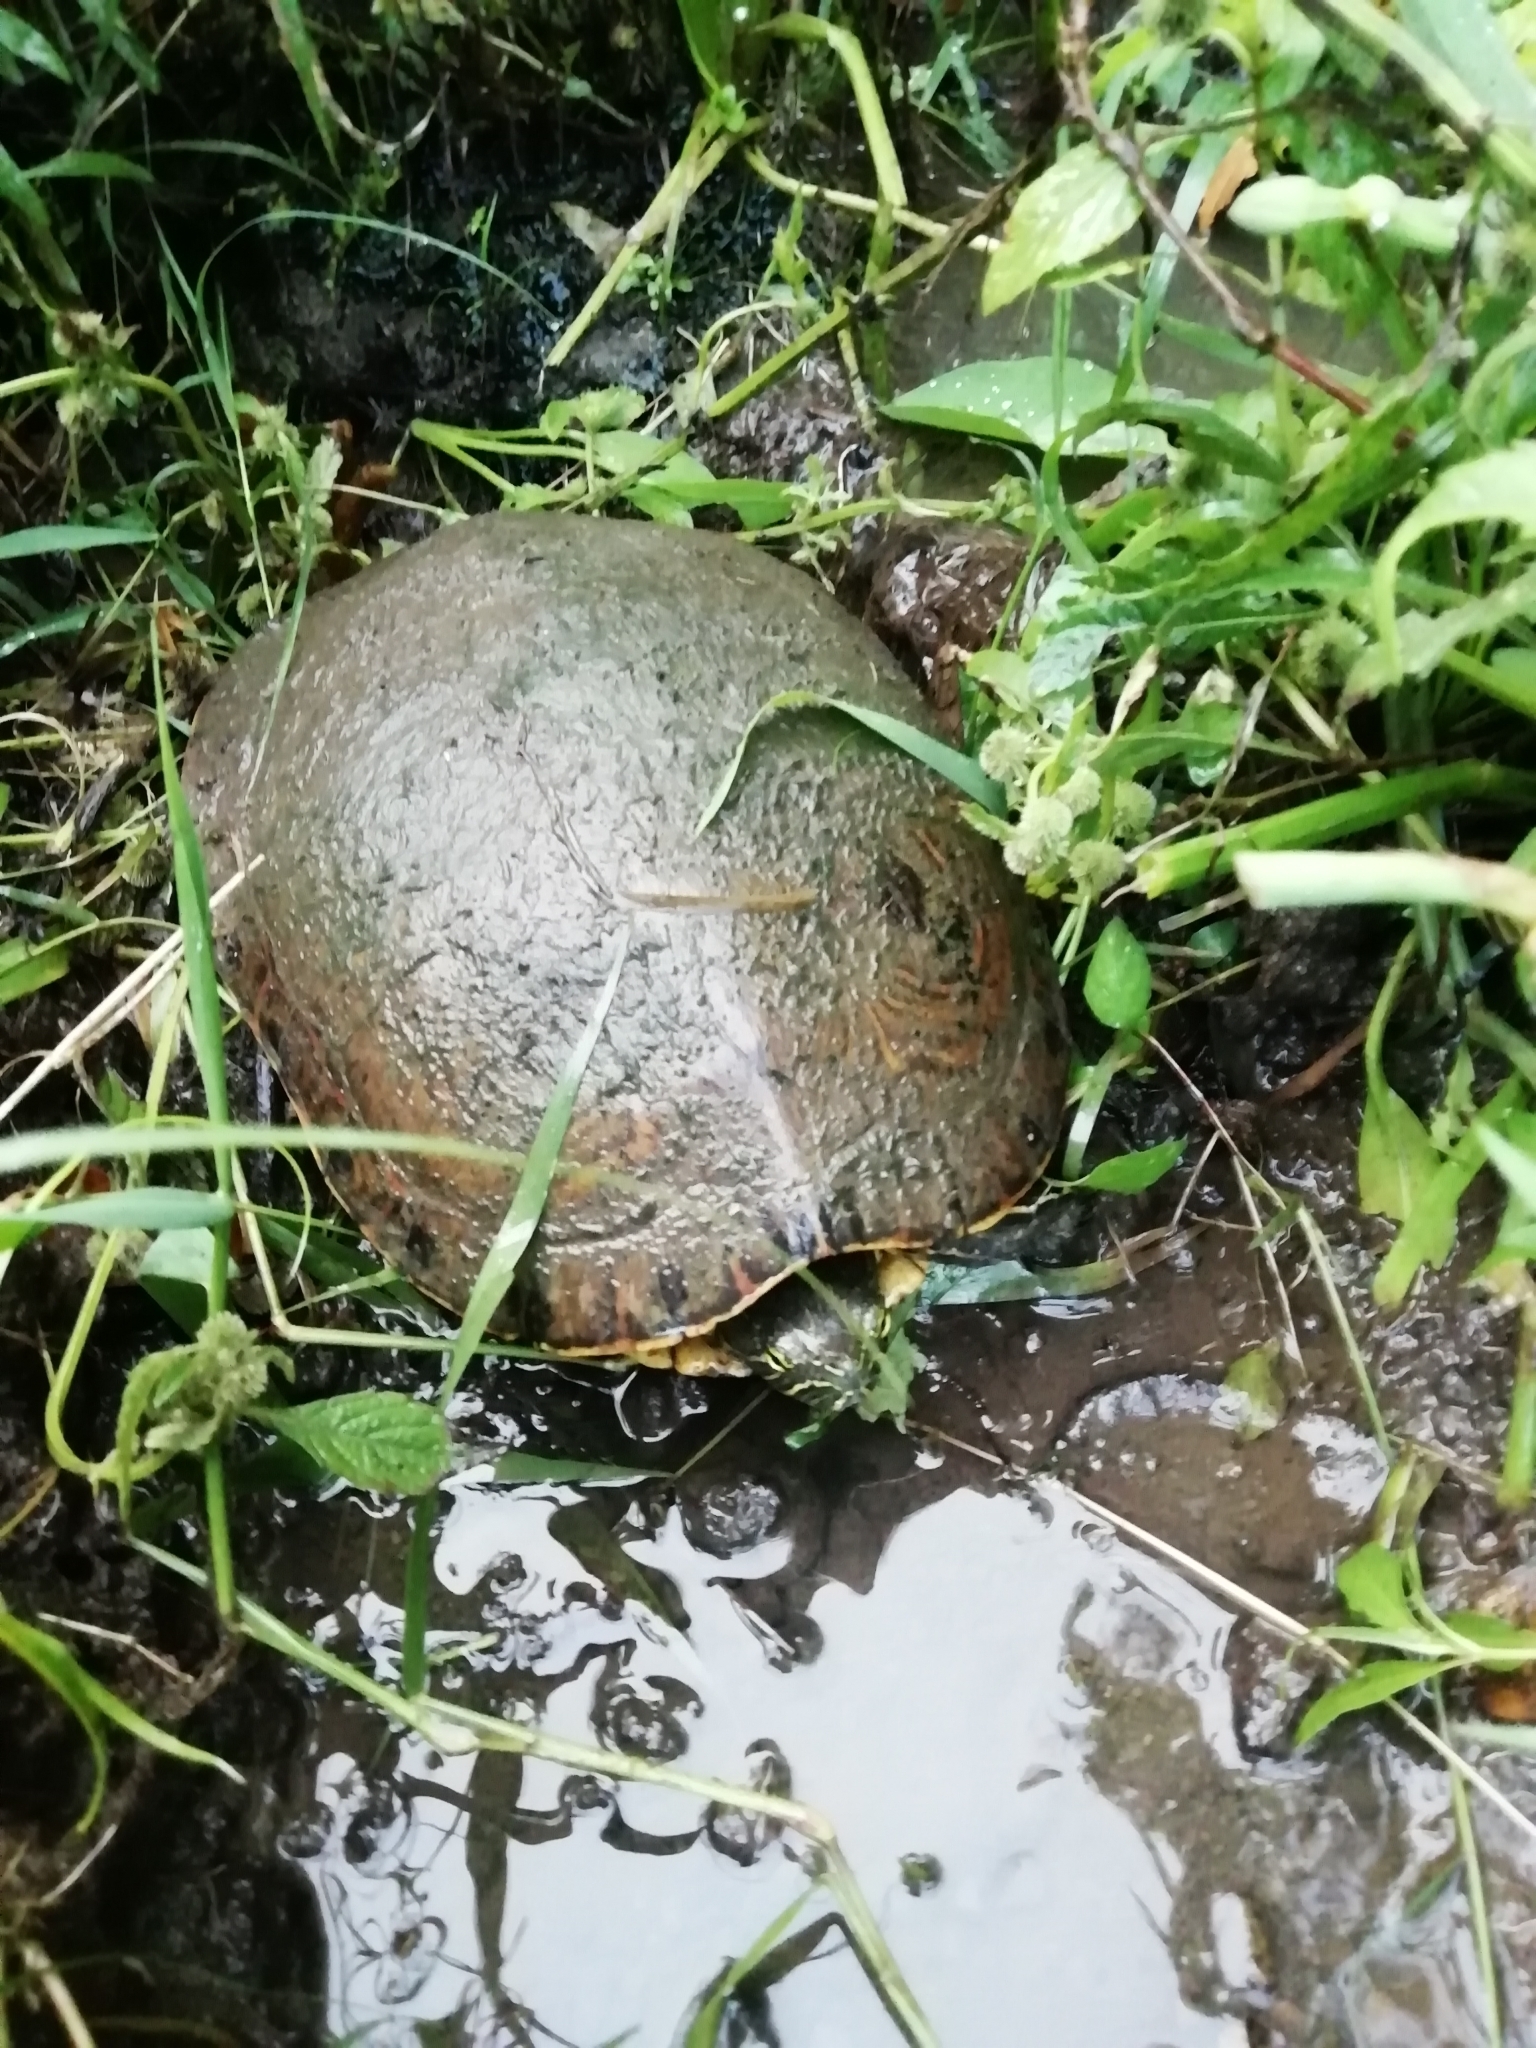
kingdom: Animalia
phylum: Chordata
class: Testudines
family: Emydidae
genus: Trachemys
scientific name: Trachemys venusta
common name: Mesoamerican slider
